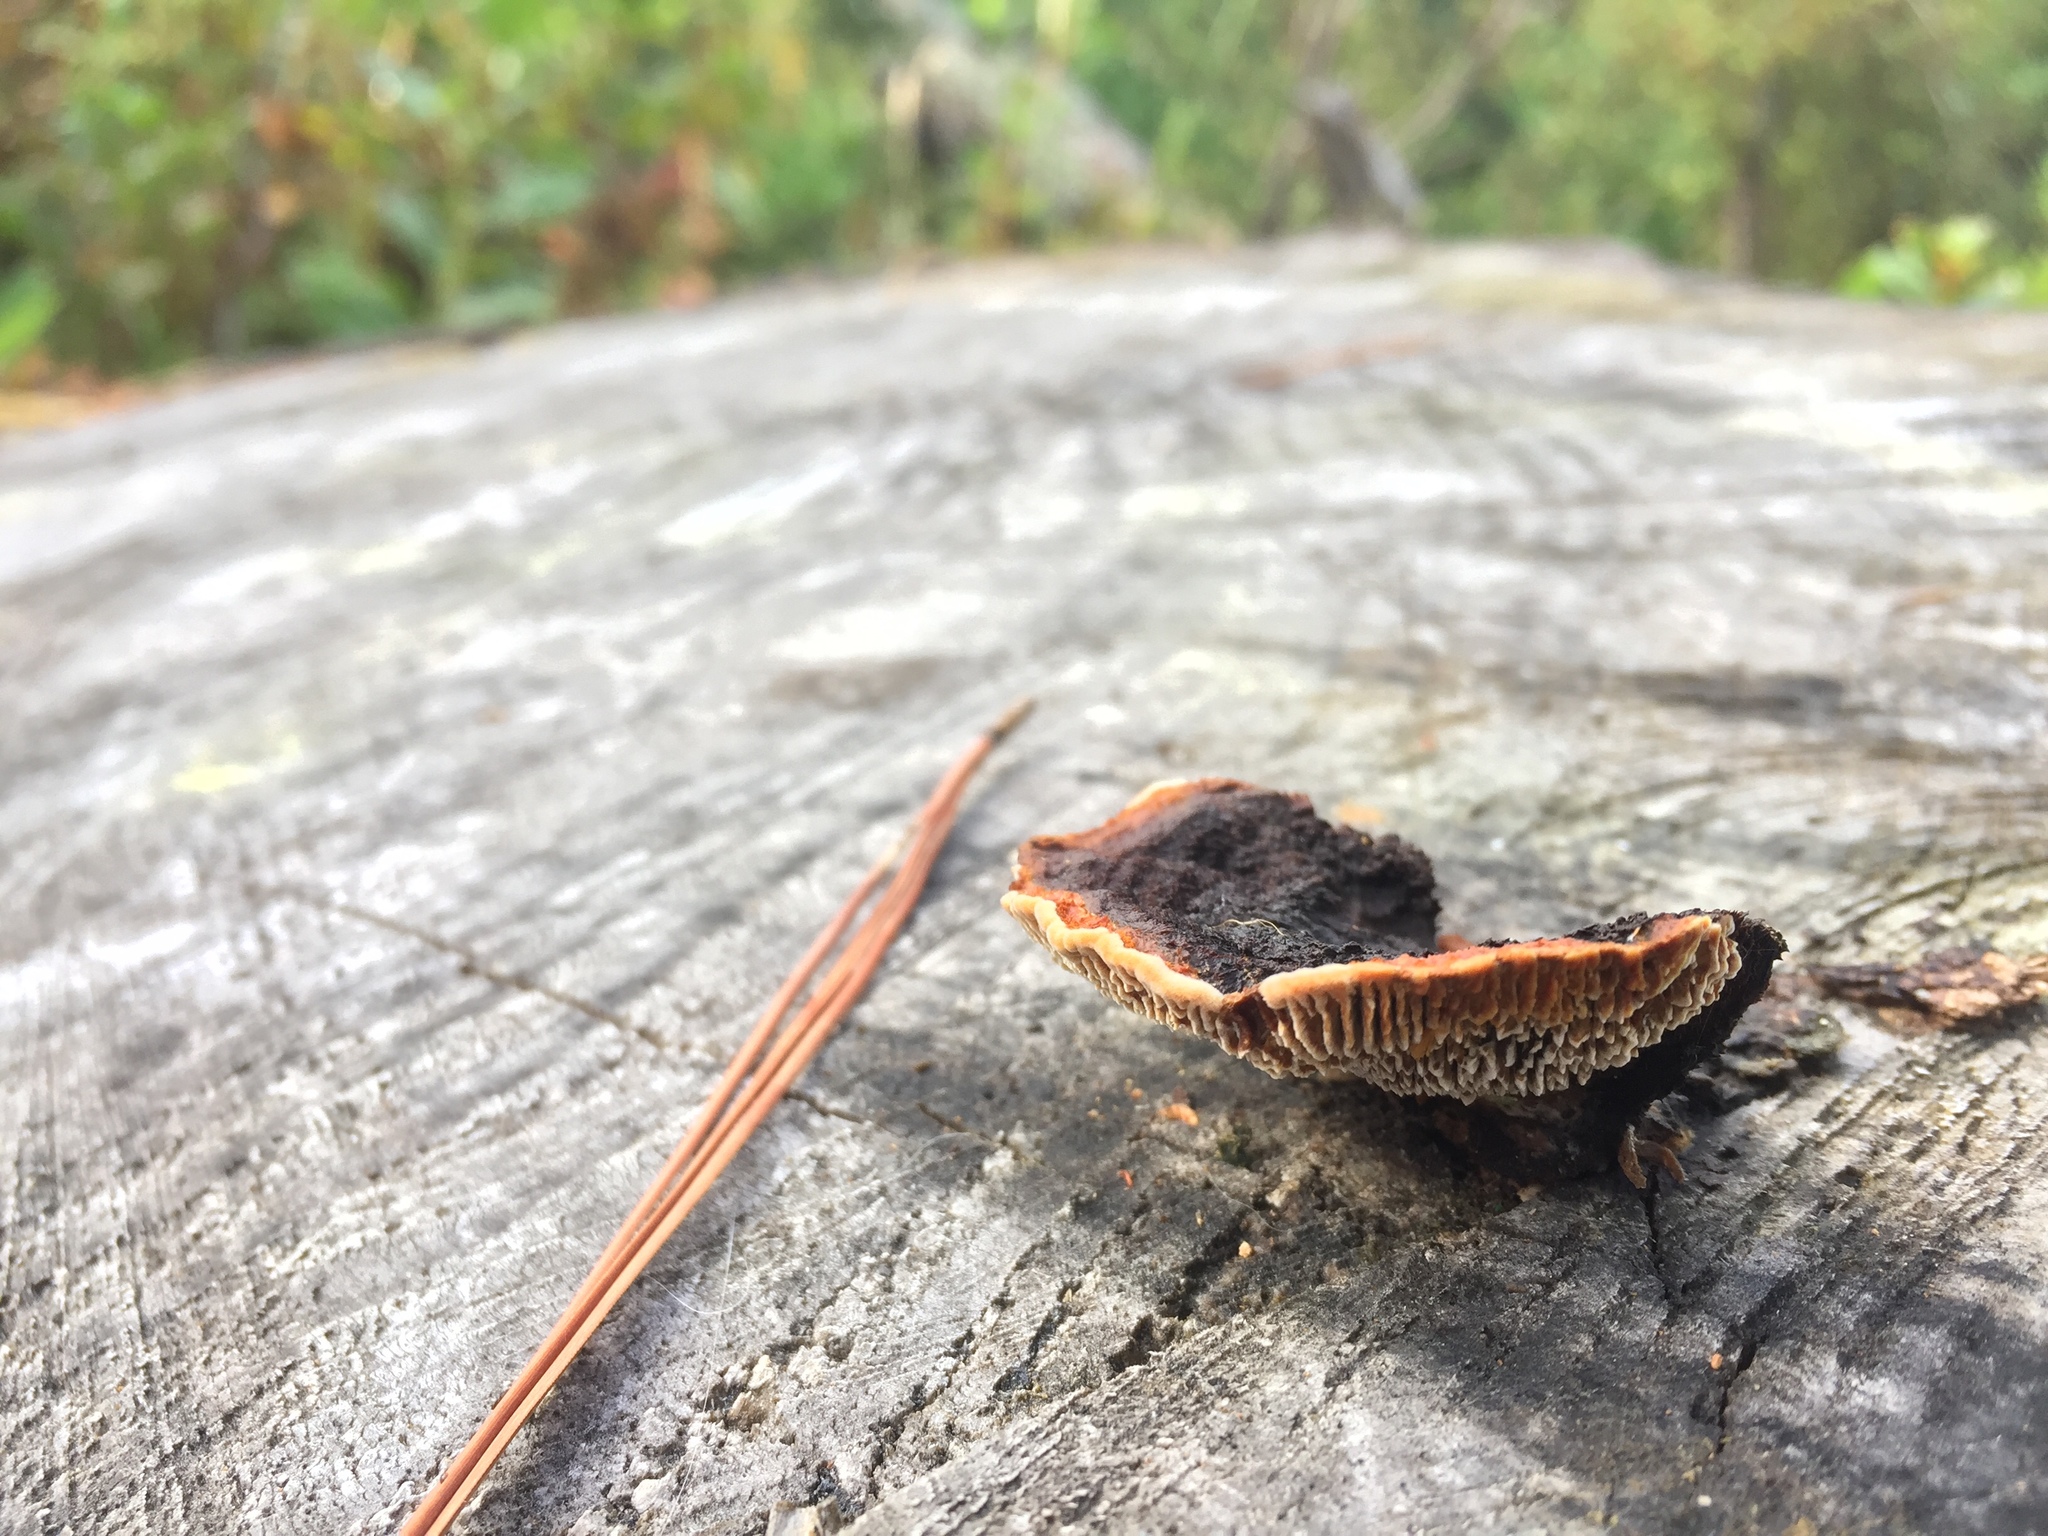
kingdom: Fungi
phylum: Basidiomycota
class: Agaricomycetes
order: Gloeophyllales
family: Gloeophyllaceae
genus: Gloeophyllum
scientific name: Gloeophyllum sepiarium
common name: Conifer mazegill
